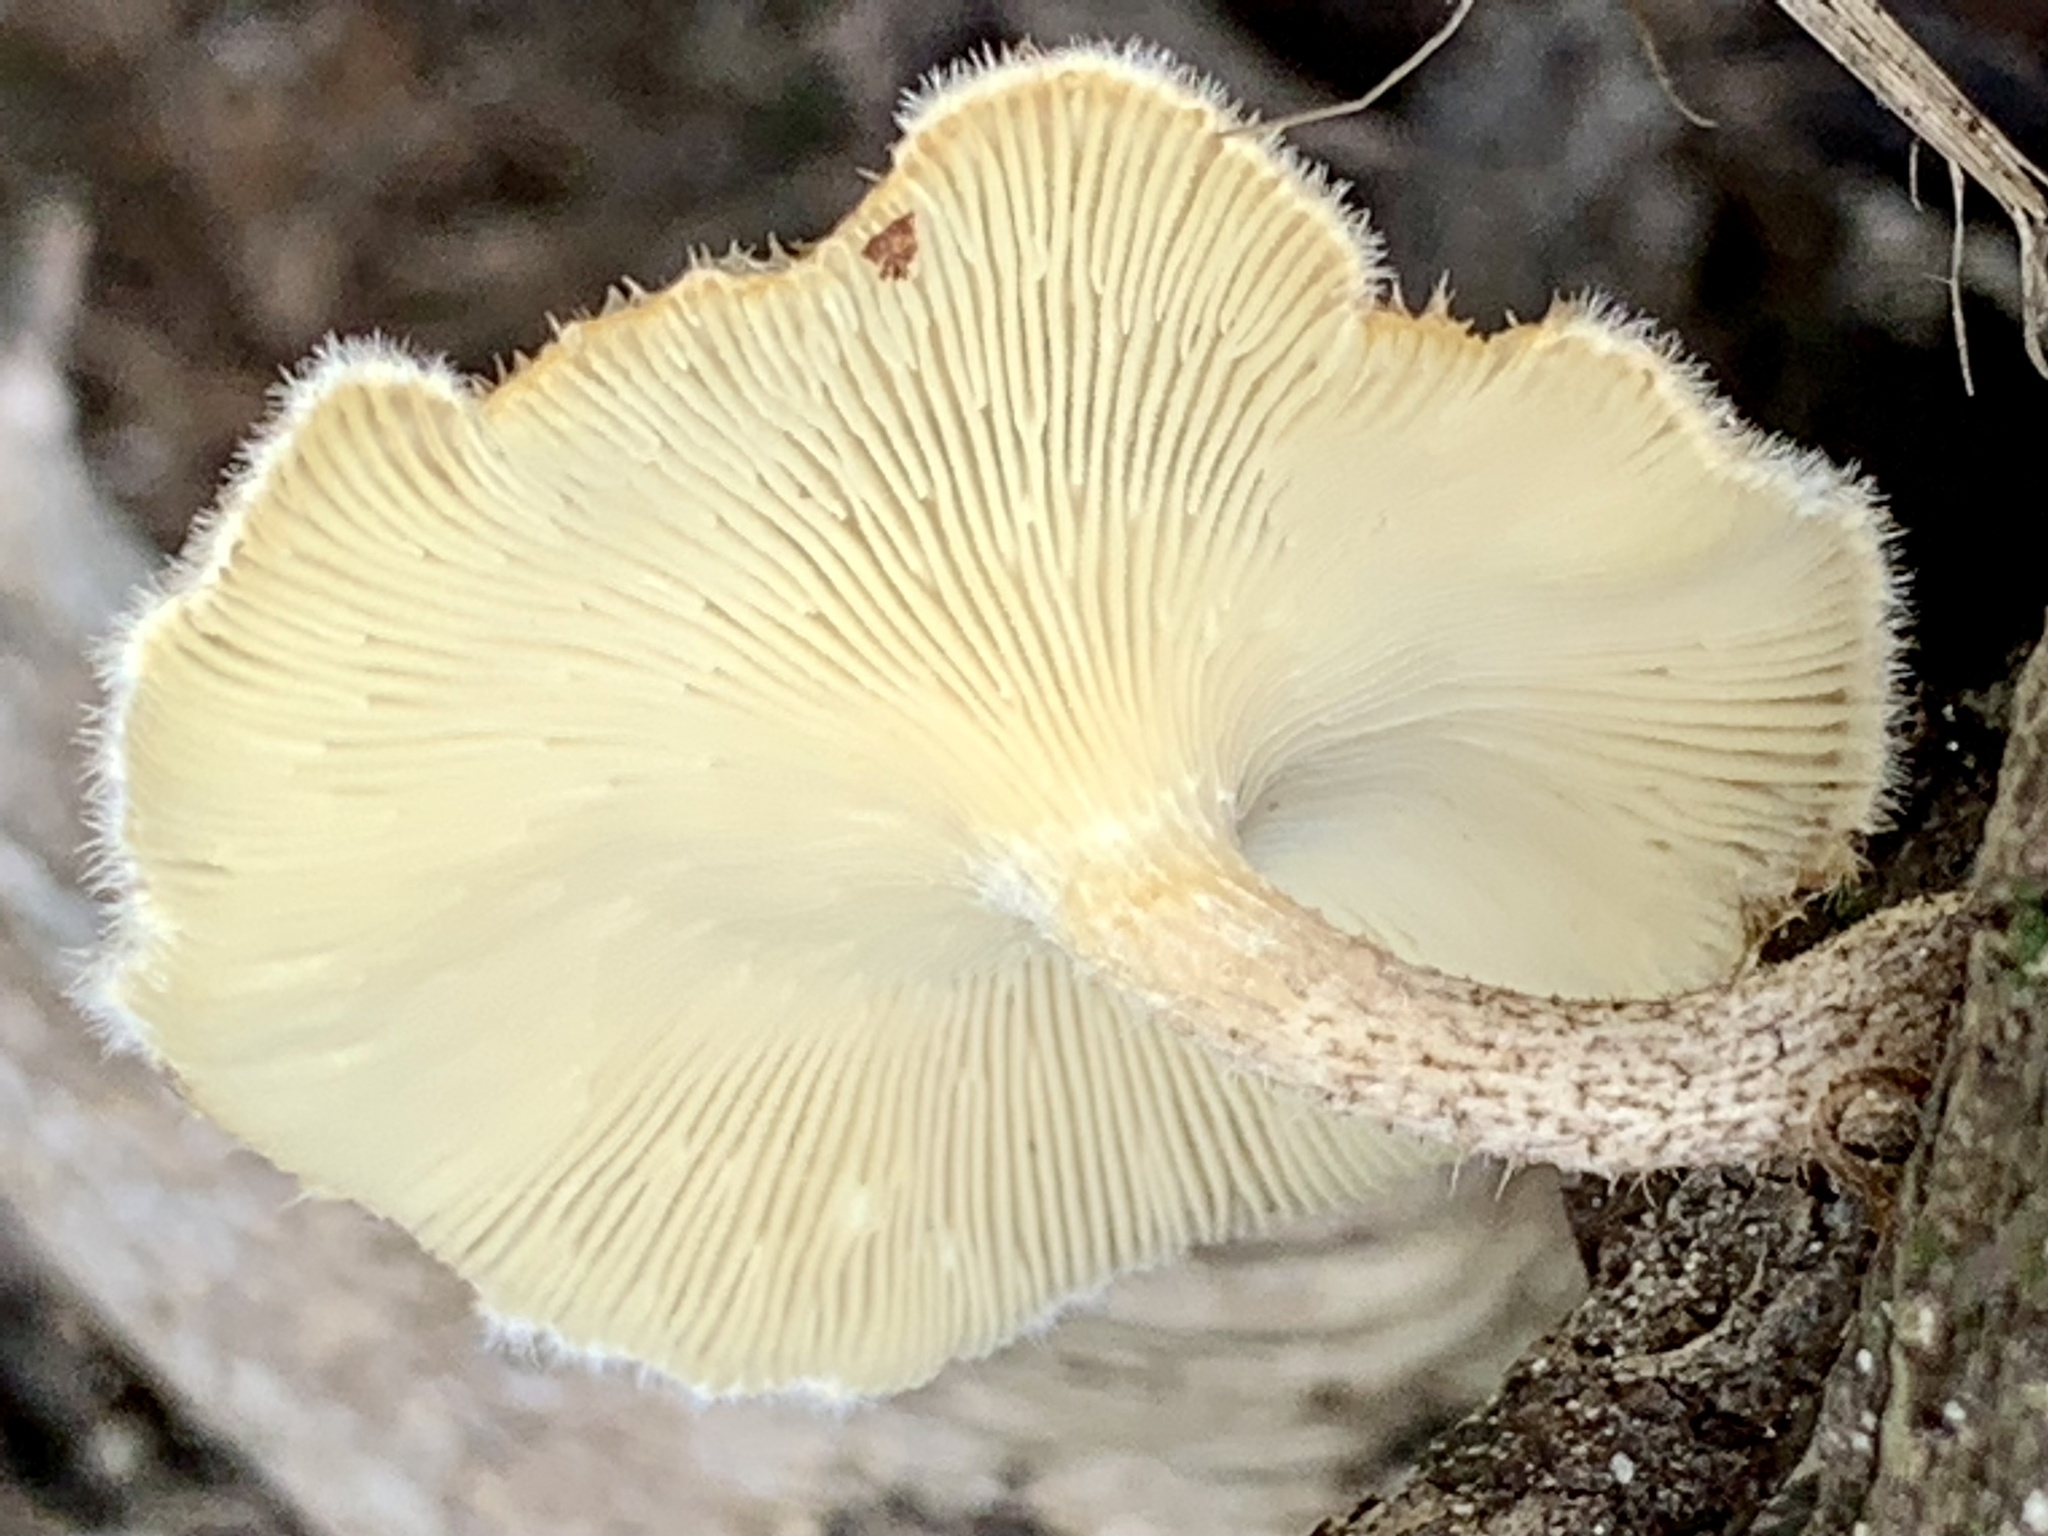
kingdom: Fungi
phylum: Basidiomycota
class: Agaricomycetes
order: Polyporales
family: Polyporaceae
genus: Lentinus
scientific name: Lentinus crinitus
